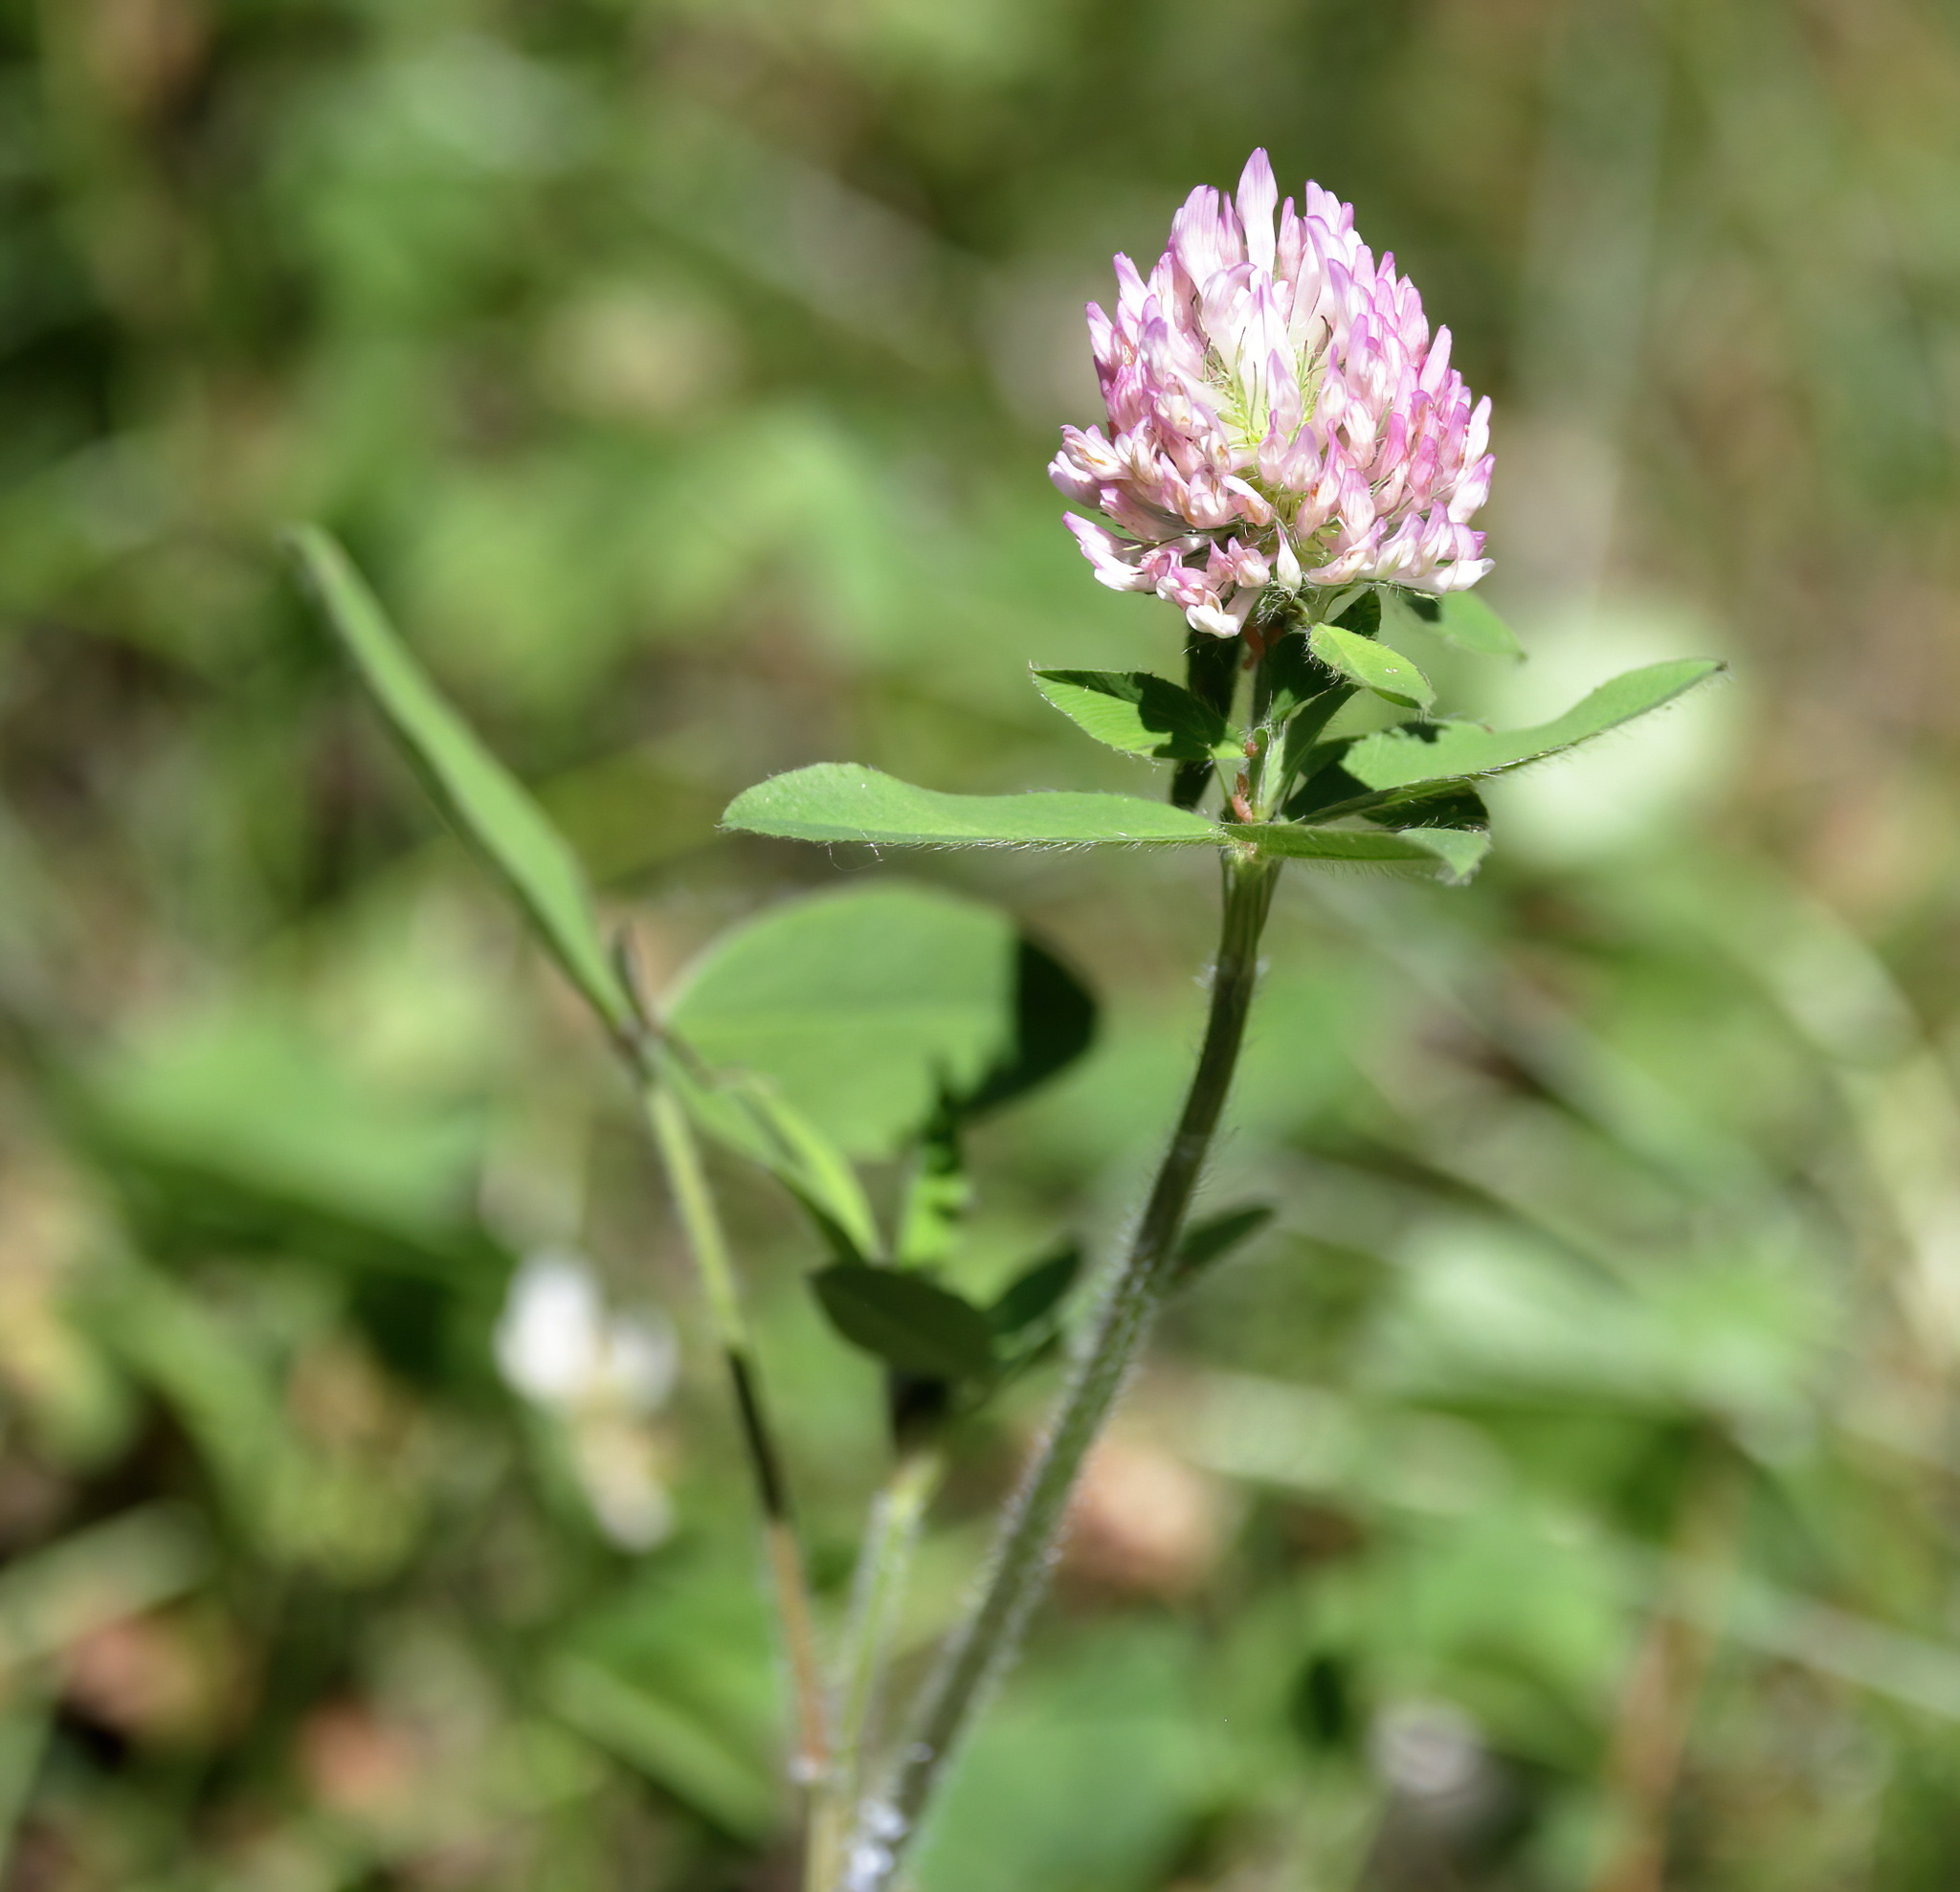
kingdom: Plantae
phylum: Tracheophyta
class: Magnoliopsida
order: Fabales
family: Fabaceae
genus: Trifolium
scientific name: Trifolium pratense
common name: Red clover
